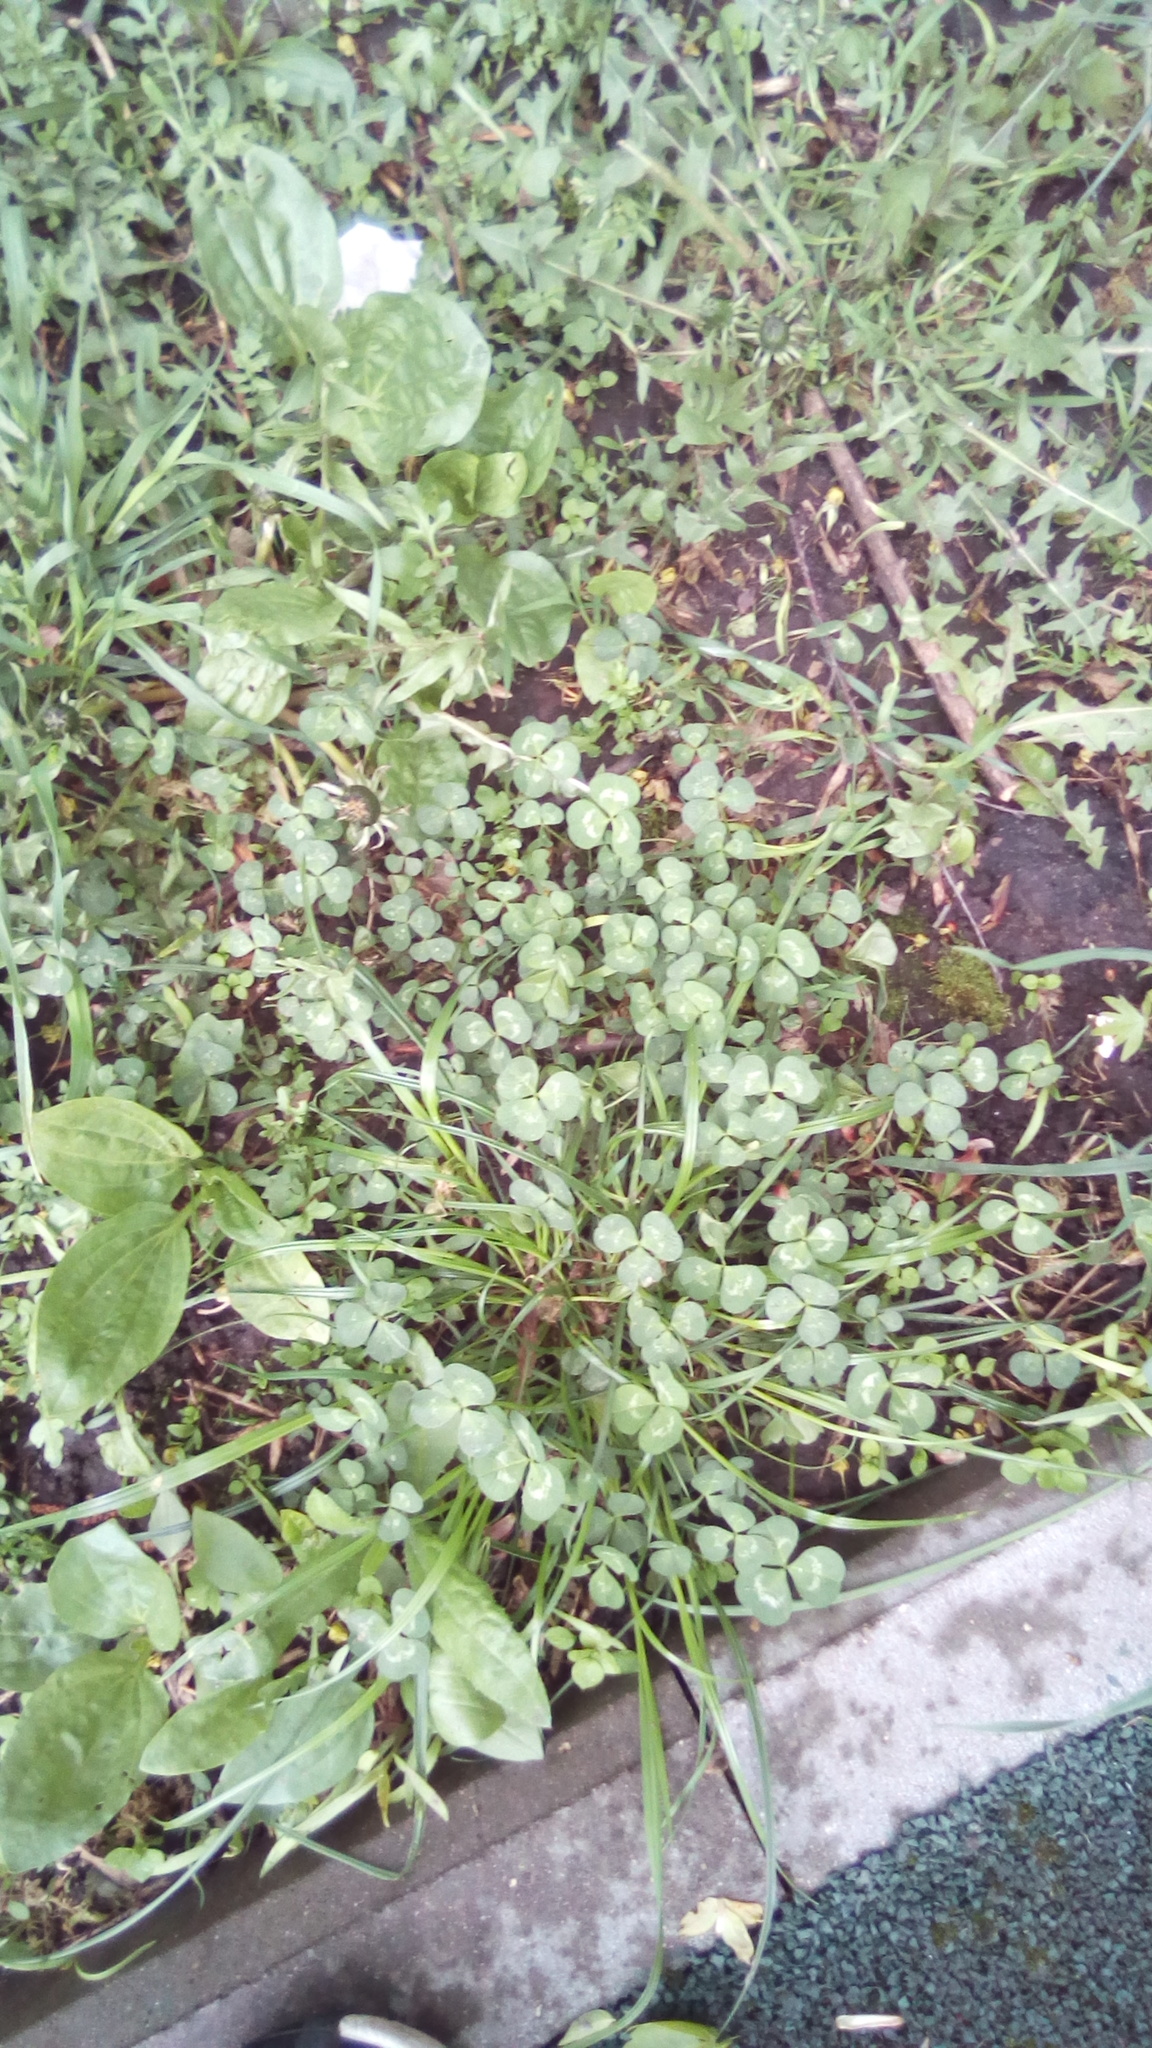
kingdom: Plantae
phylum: Tracheophyta
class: Magnoliopsida
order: Fabales
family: Fabaceae
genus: Trifolium
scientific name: Trifolium repens
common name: White clover
